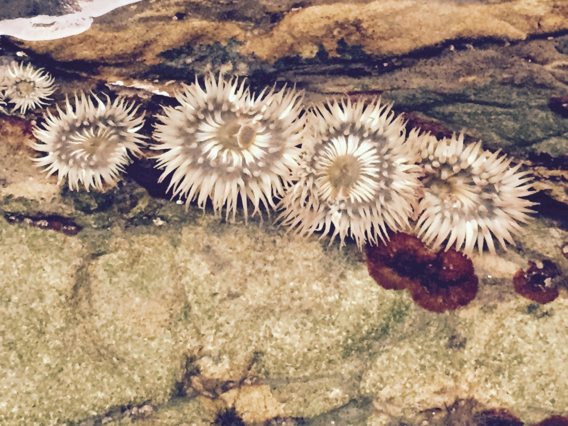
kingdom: Animalia
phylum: Cnidaria
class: Anthozoa
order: Actiniaria
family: Actiniidae
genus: Anthopleura
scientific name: Anthopleura elegantissima
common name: Clonal anemone
